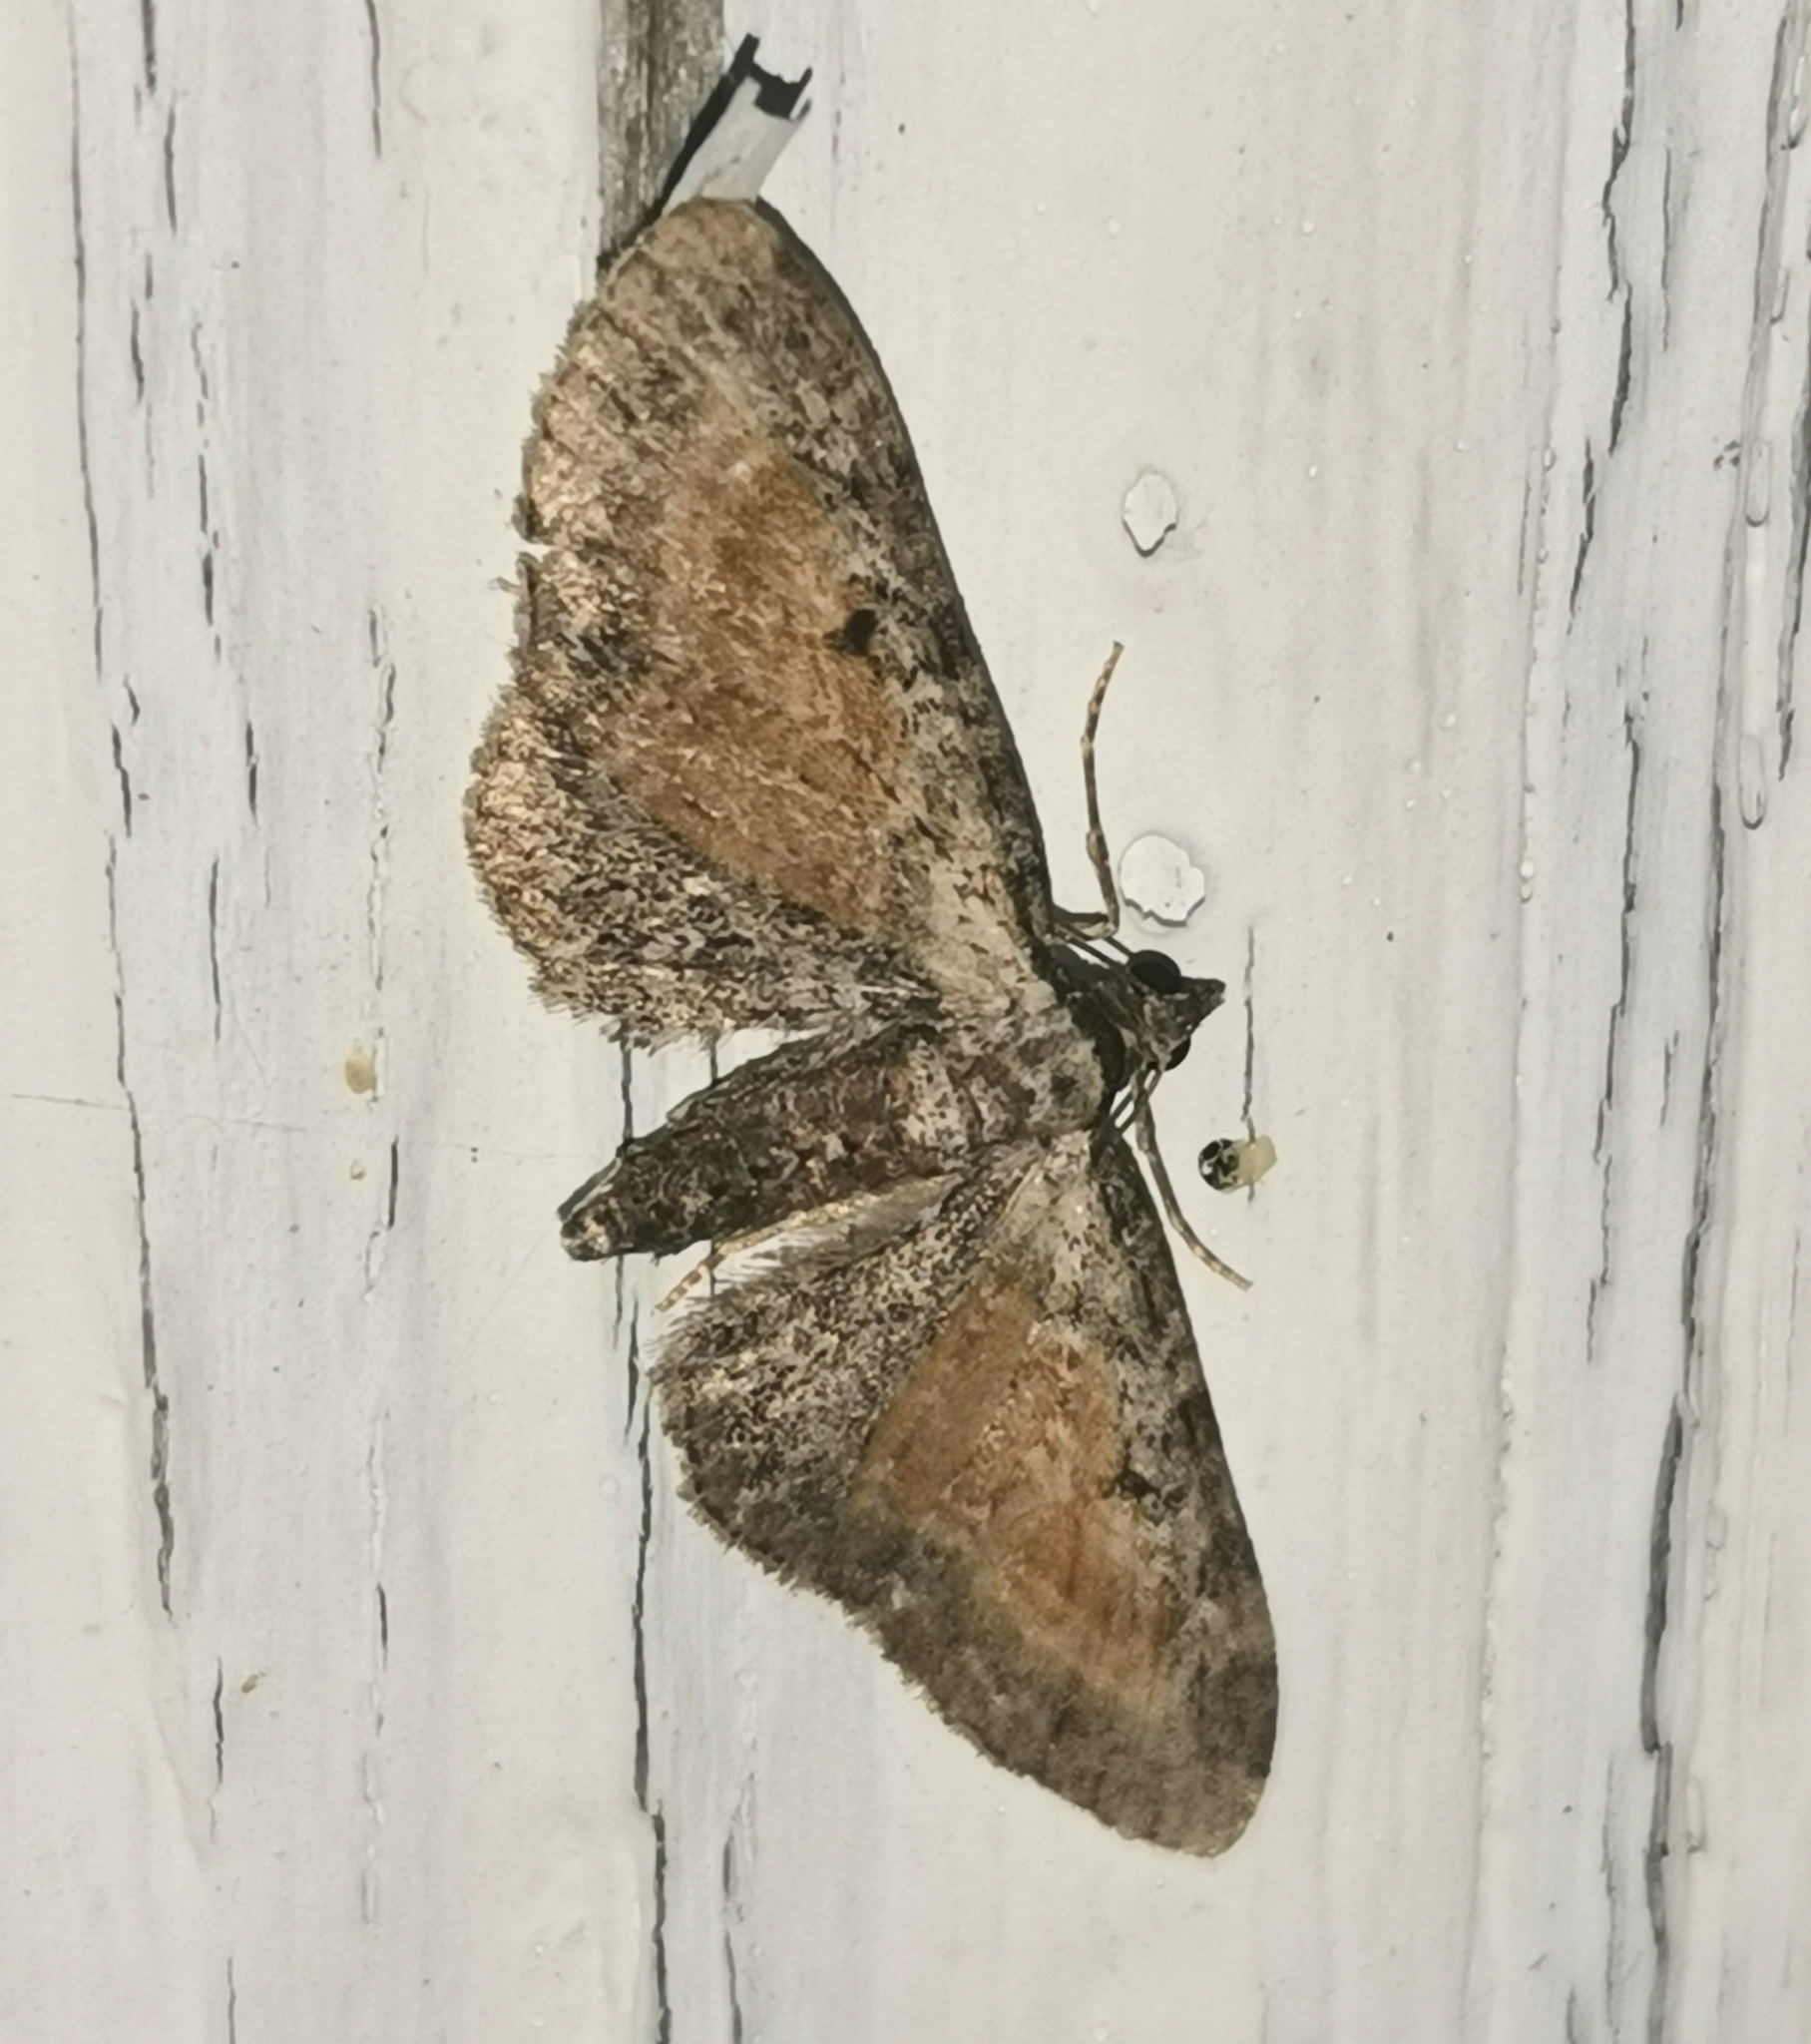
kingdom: Animalia
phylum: Arthropoda
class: Insecta
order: Lepidoptera
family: Geometridae
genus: Eupithecia
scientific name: Eupithecia icterata
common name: Tawny speckled pug
